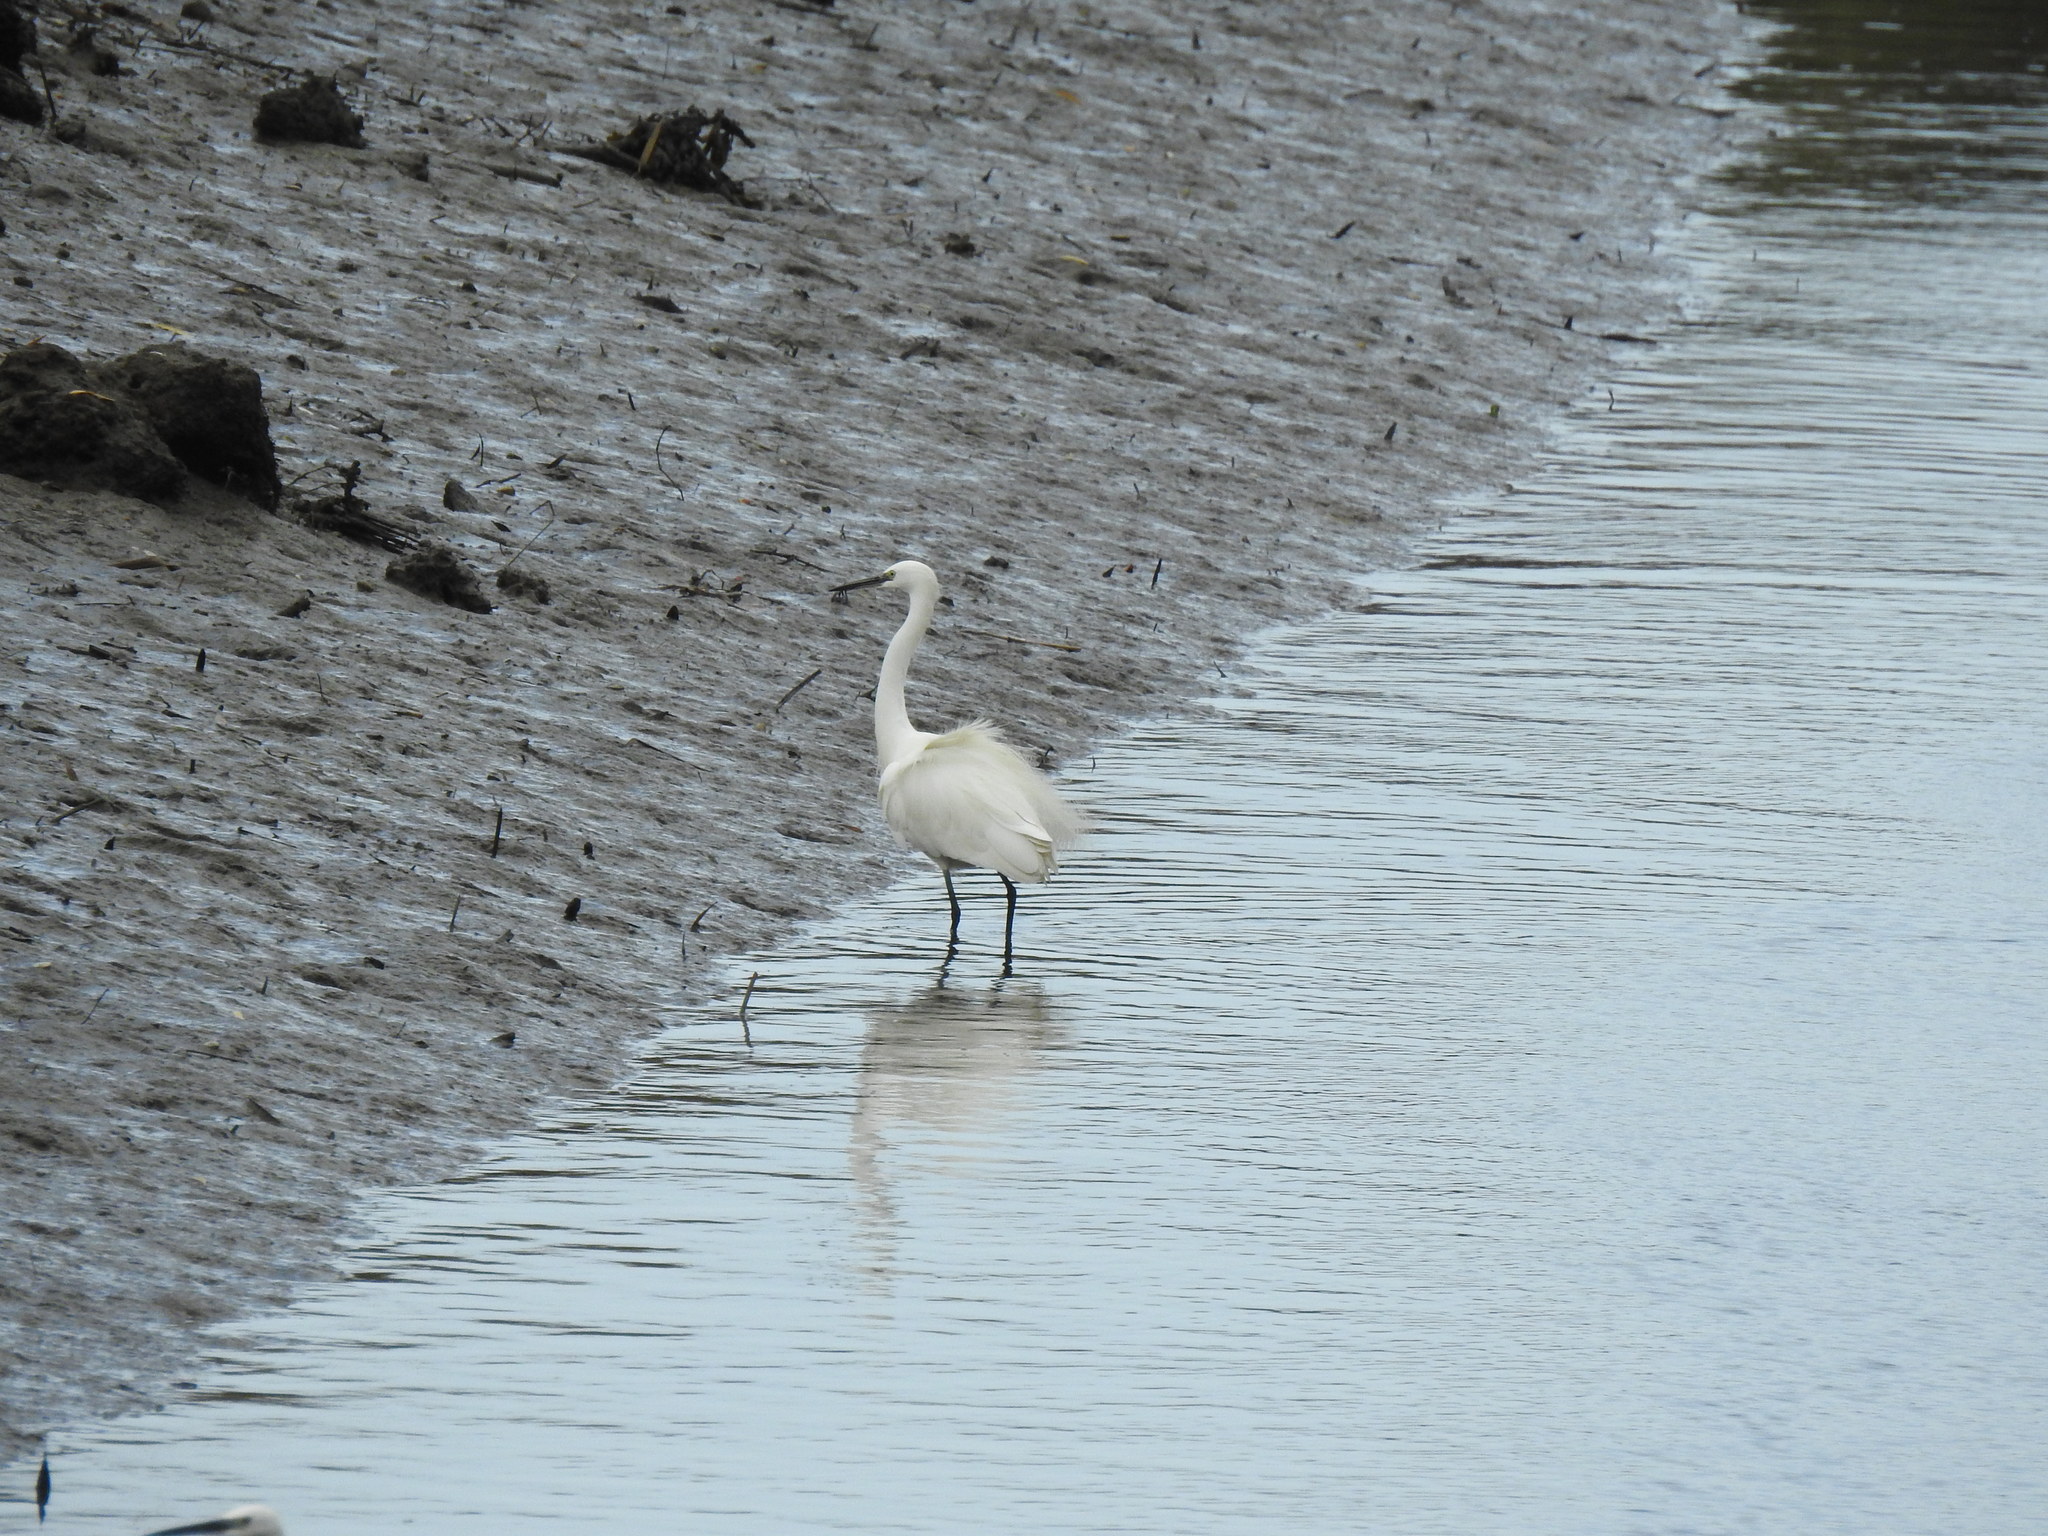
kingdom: Animalia
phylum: Chordata
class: Aves
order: Pelecaniformes
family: Ardeidae
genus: Egretta
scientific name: Egretta garzetta
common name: Little egret
